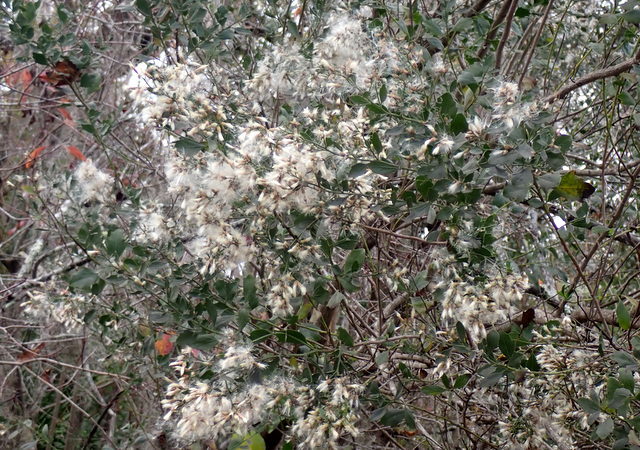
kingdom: Plantae
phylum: Tracheophyta
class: Magnoliopsida
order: Asterales
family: Asteraceae
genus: Baccharis
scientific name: Baccharis halimifolia
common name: Eastern baccharis
